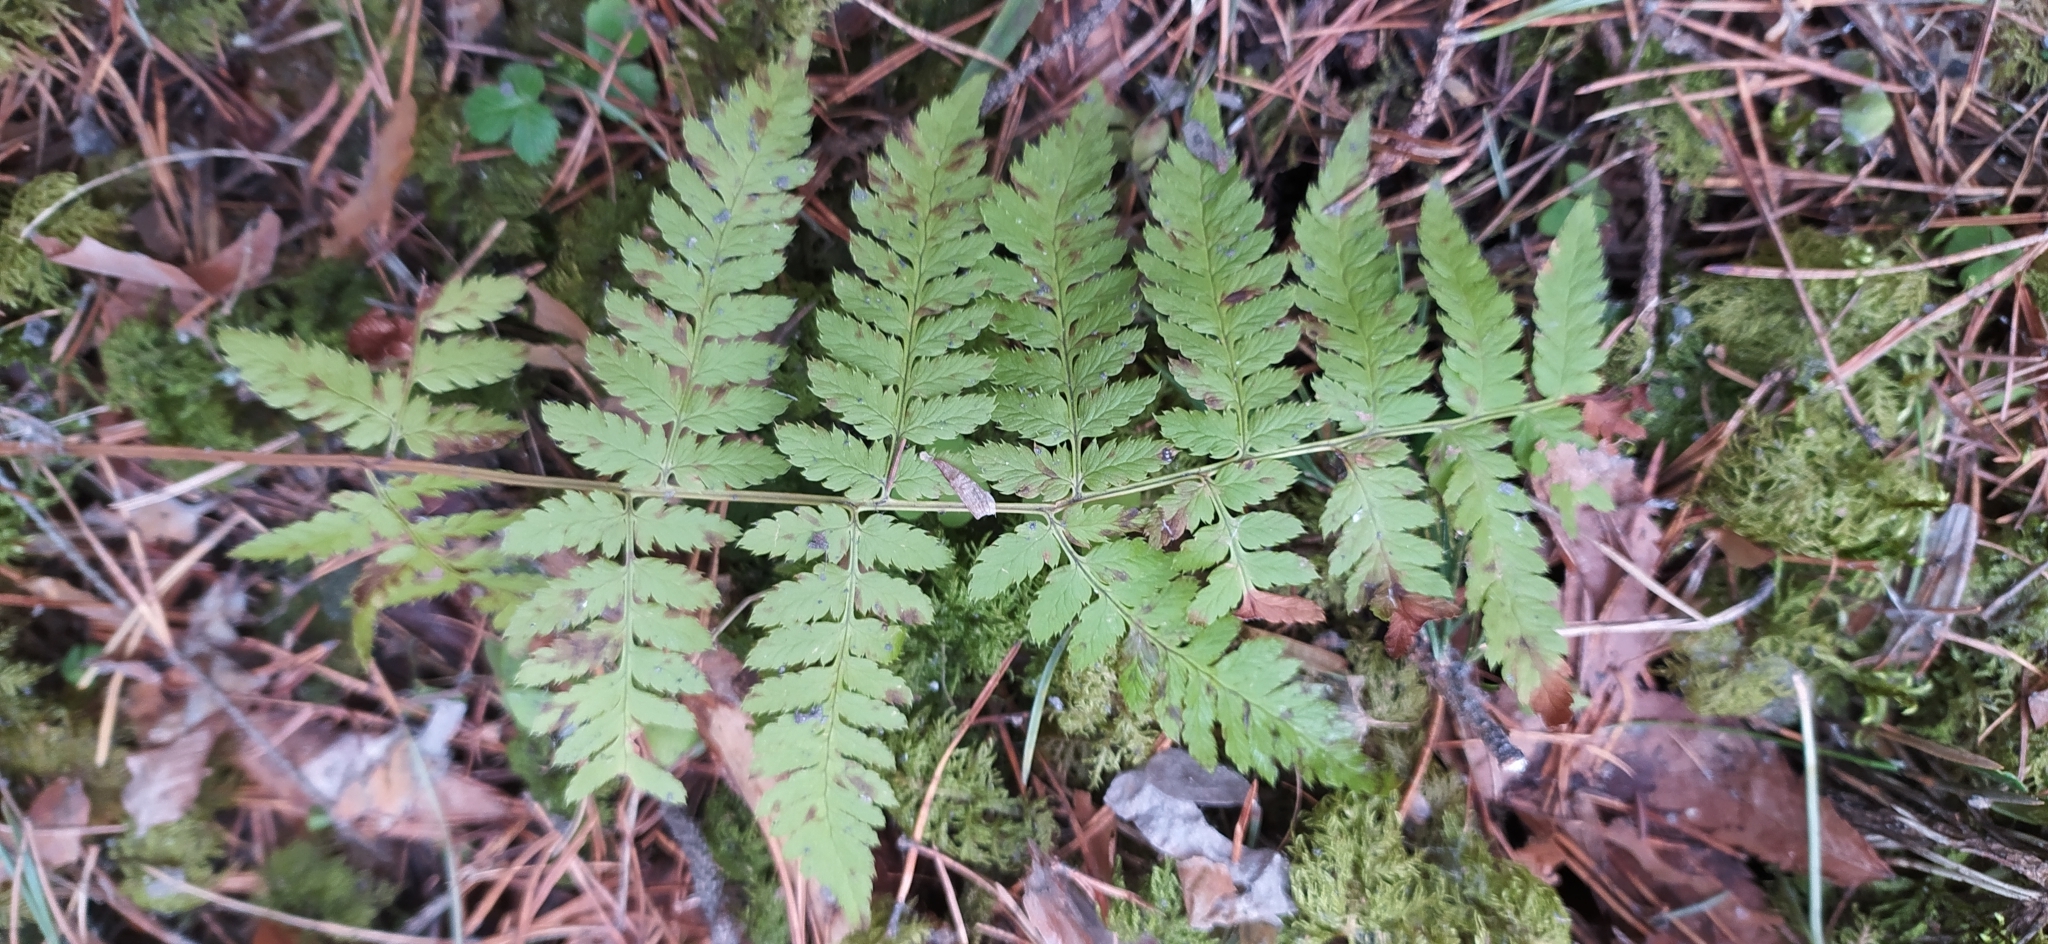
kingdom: Plantae
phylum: Tracheophyta
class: Polypodiopsida
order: Polypodiales
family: Dryopteridaceae
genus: Dryopteris
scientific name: Dryopteris carthusiana
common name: Narrow buckler-fern
